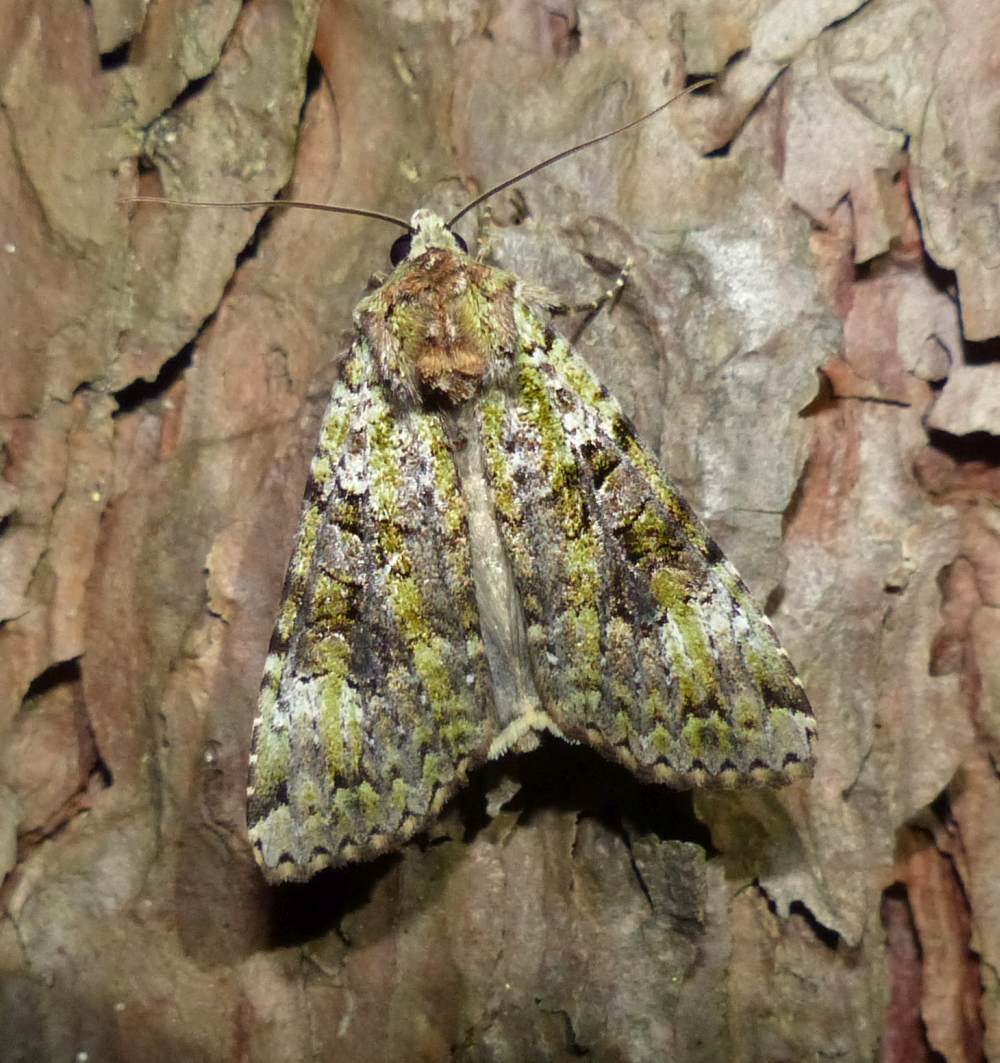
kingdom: Animalia
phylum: Arthropoda
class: Insecta
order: Lepidoptera
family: Noctuidae
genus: Anaplectoides
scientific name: Anaplectoides prasina
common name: Green arches
